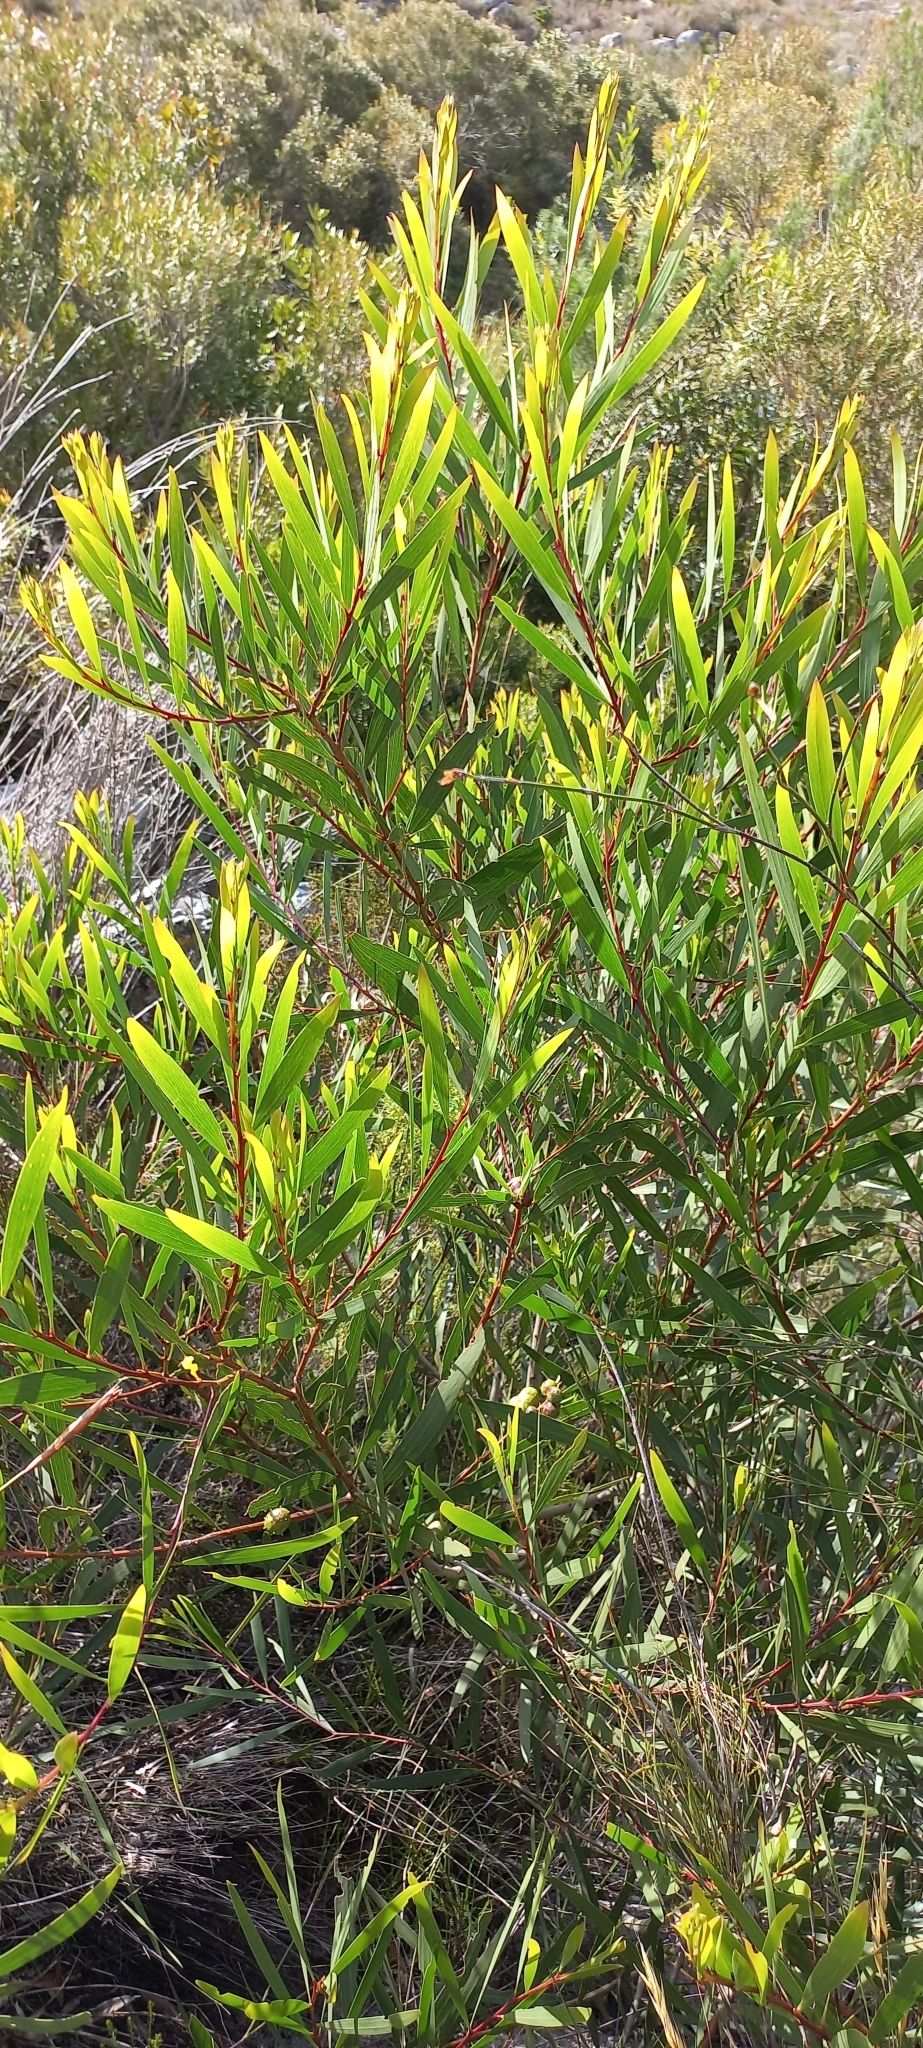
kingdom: Plantae
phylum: Tracheophyta
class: Magnoliopsida
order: Fabales
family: Fabaceae
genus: Acacia
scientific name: Acacia longifolia
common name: Sydney golden wattle
